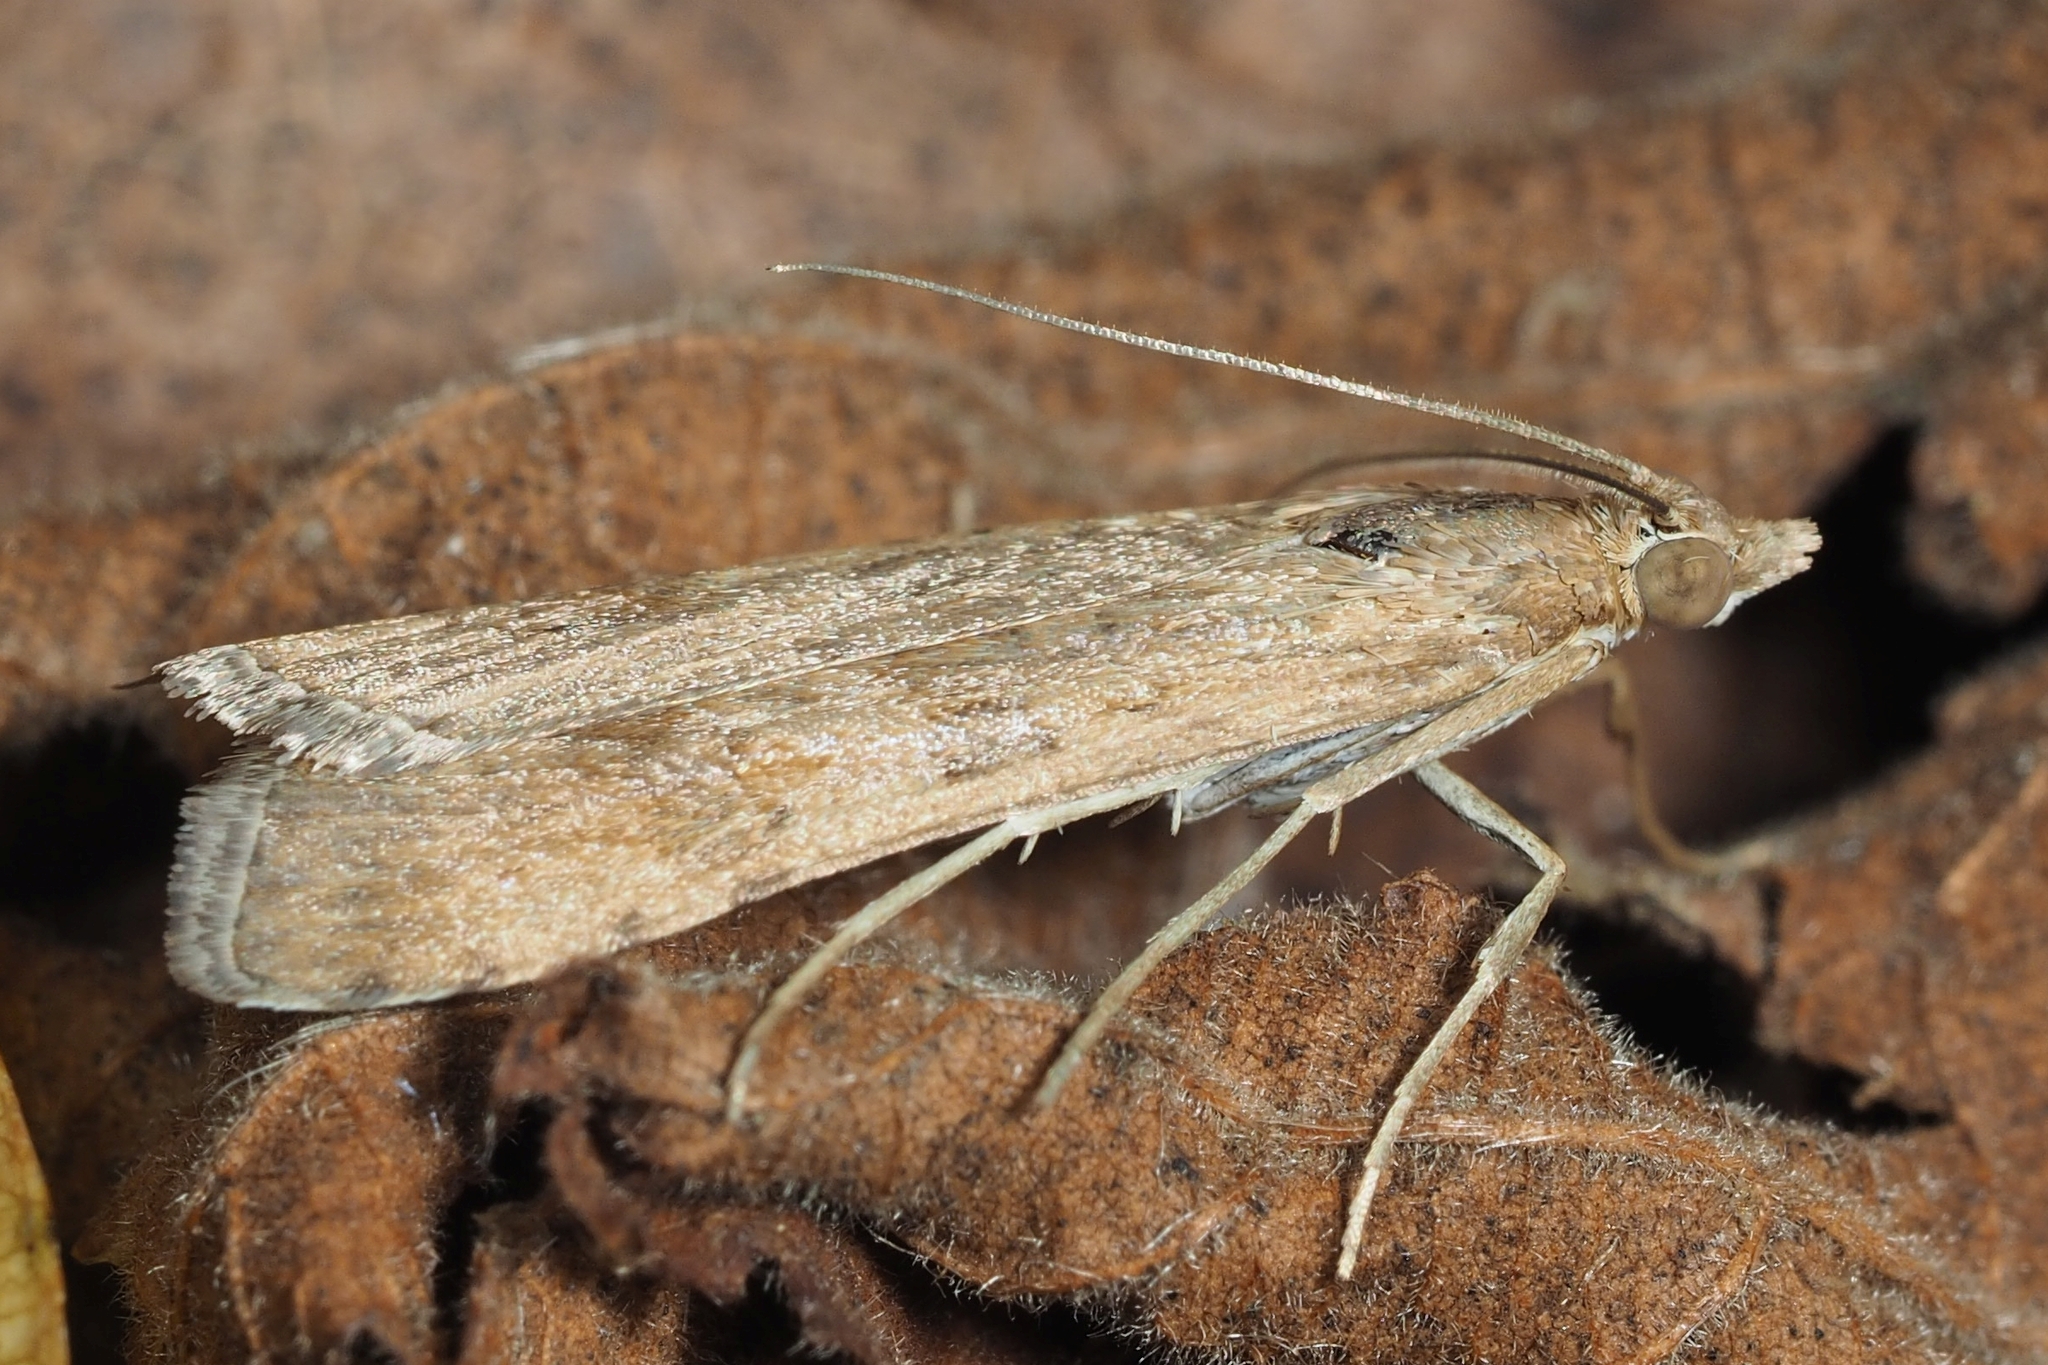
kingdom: Animalia
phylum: Arthropoda
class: Insecta
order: Lepidoptera
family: Crambidae
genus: Nomophila
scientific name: Nomophila noctuella
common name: Rush veneer
